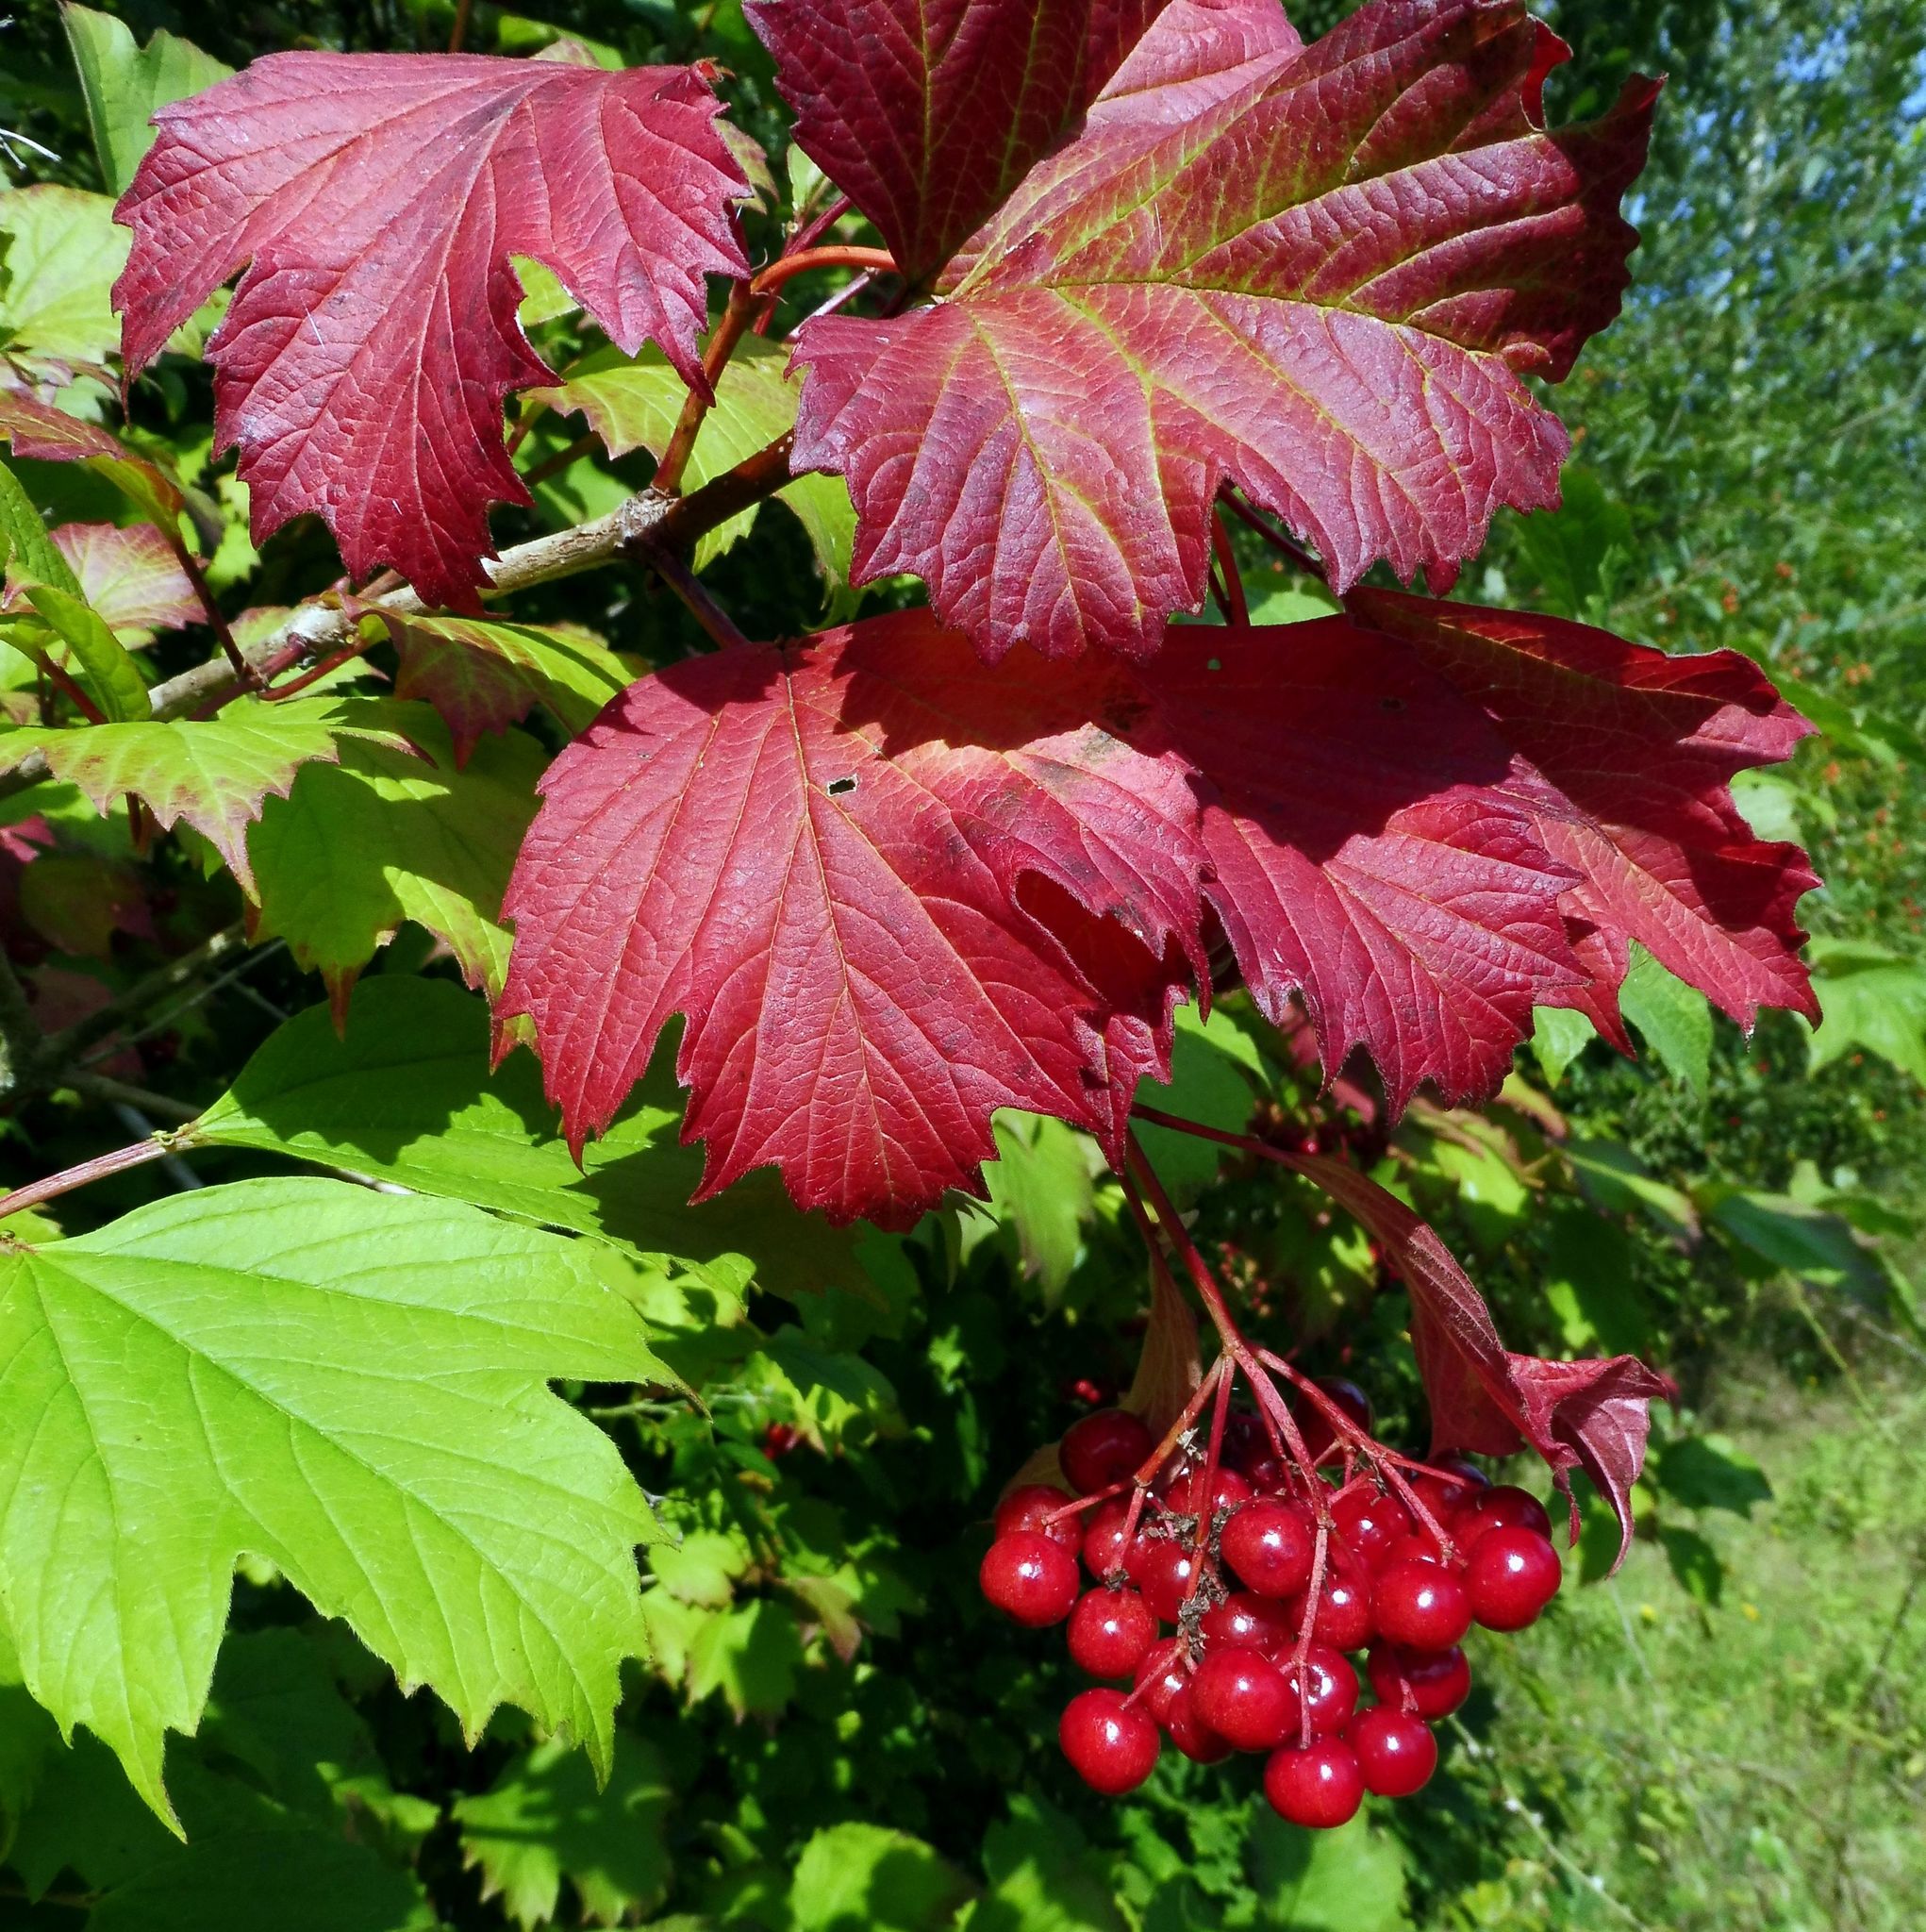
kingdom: Plantae
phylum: Tracheophyta
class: Magnoliopsida
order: Dipsacales
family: Viburnaceae
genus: Viburnum
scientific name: Viburnum opulus
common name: Guelder-rose
